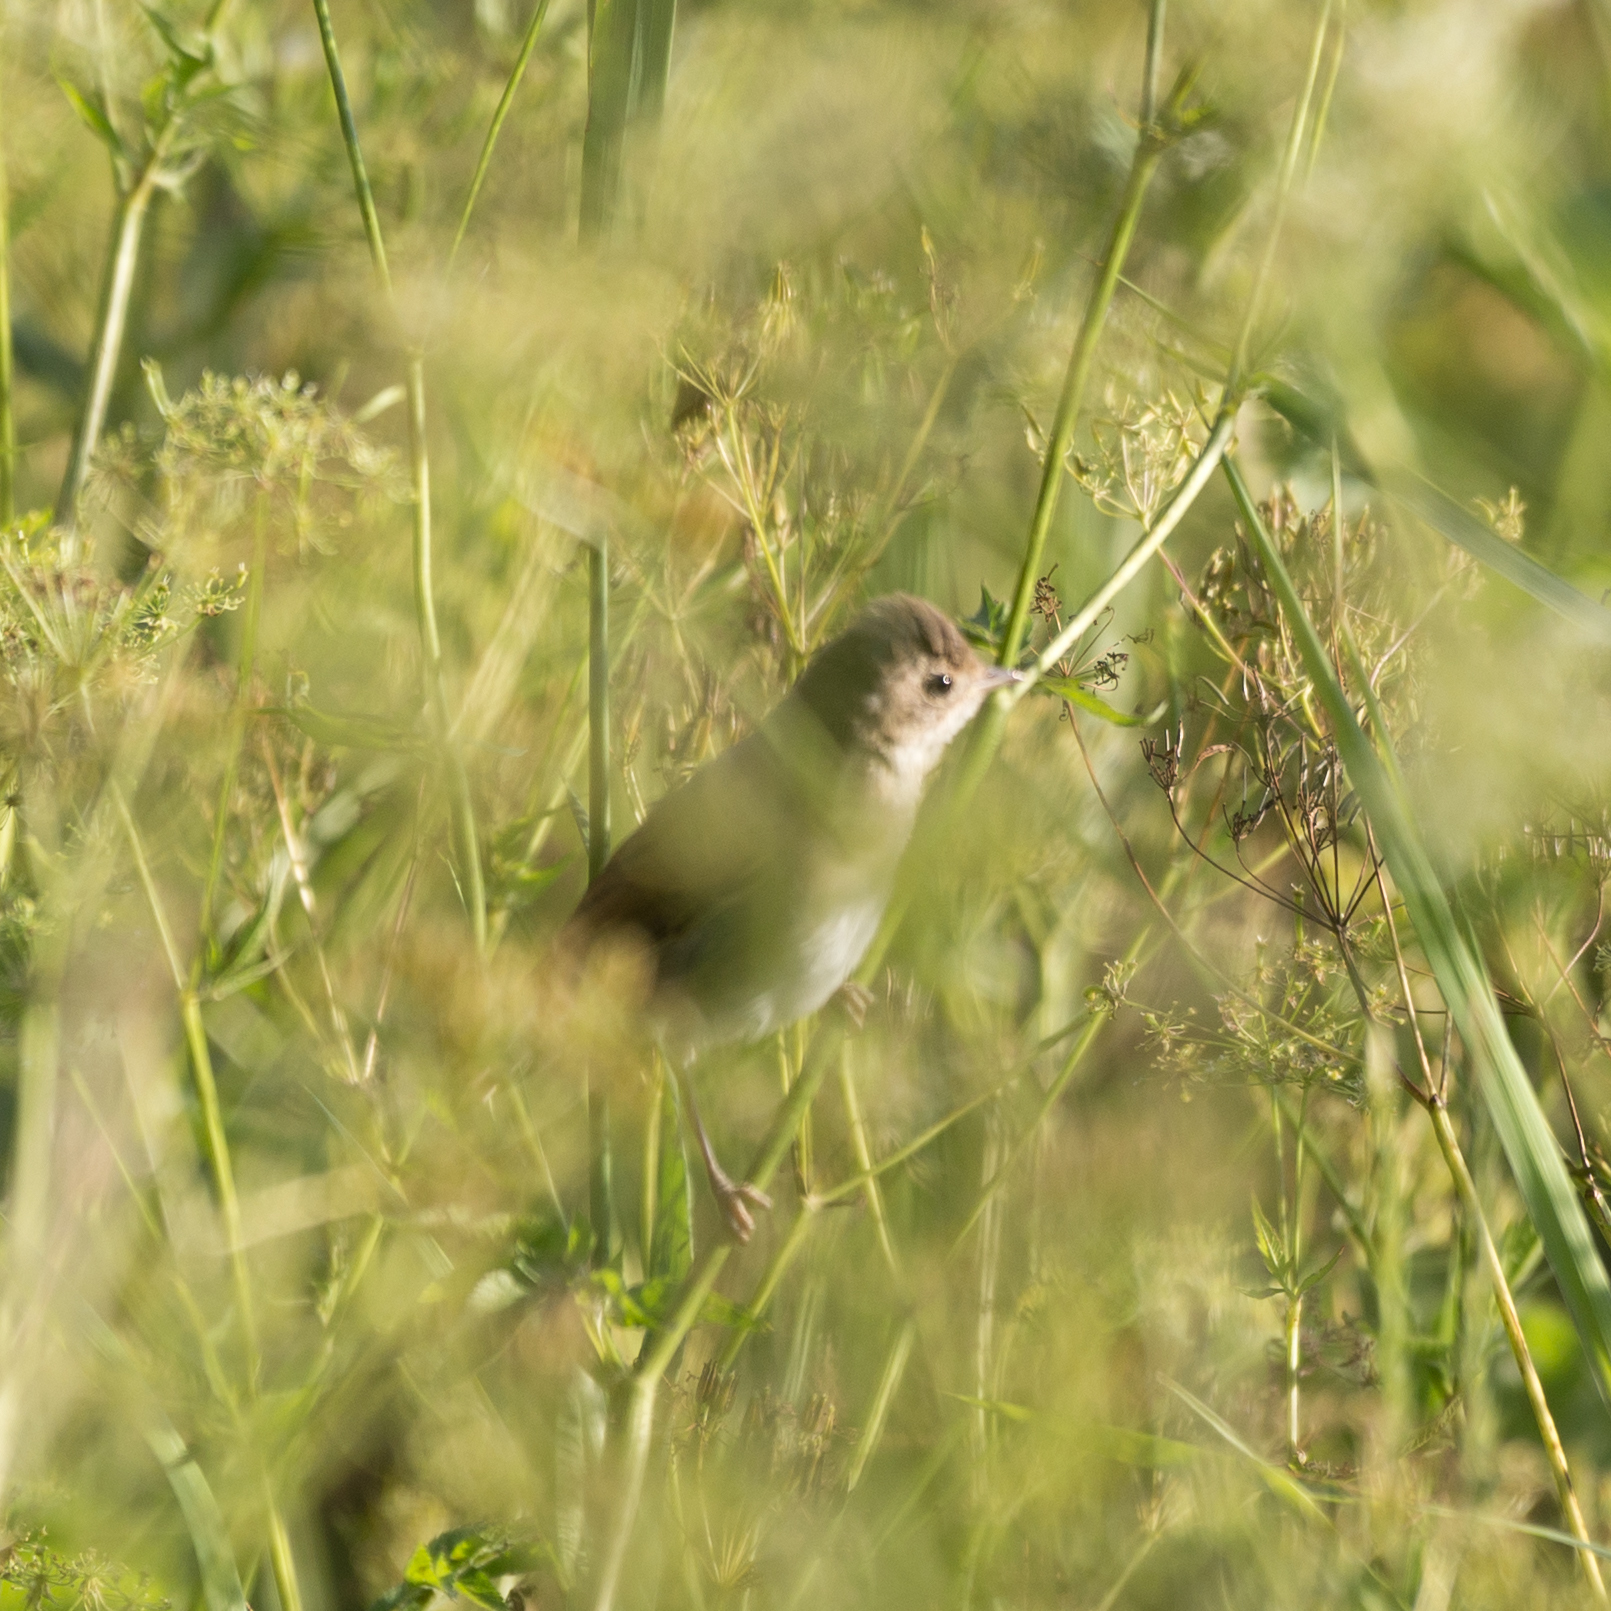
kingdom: Animalia
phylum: Chordata
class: Aves
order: Passeriformes
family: Sylviidae
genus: Sylvia
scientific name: Sylvia communis
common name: Common whitethroat
